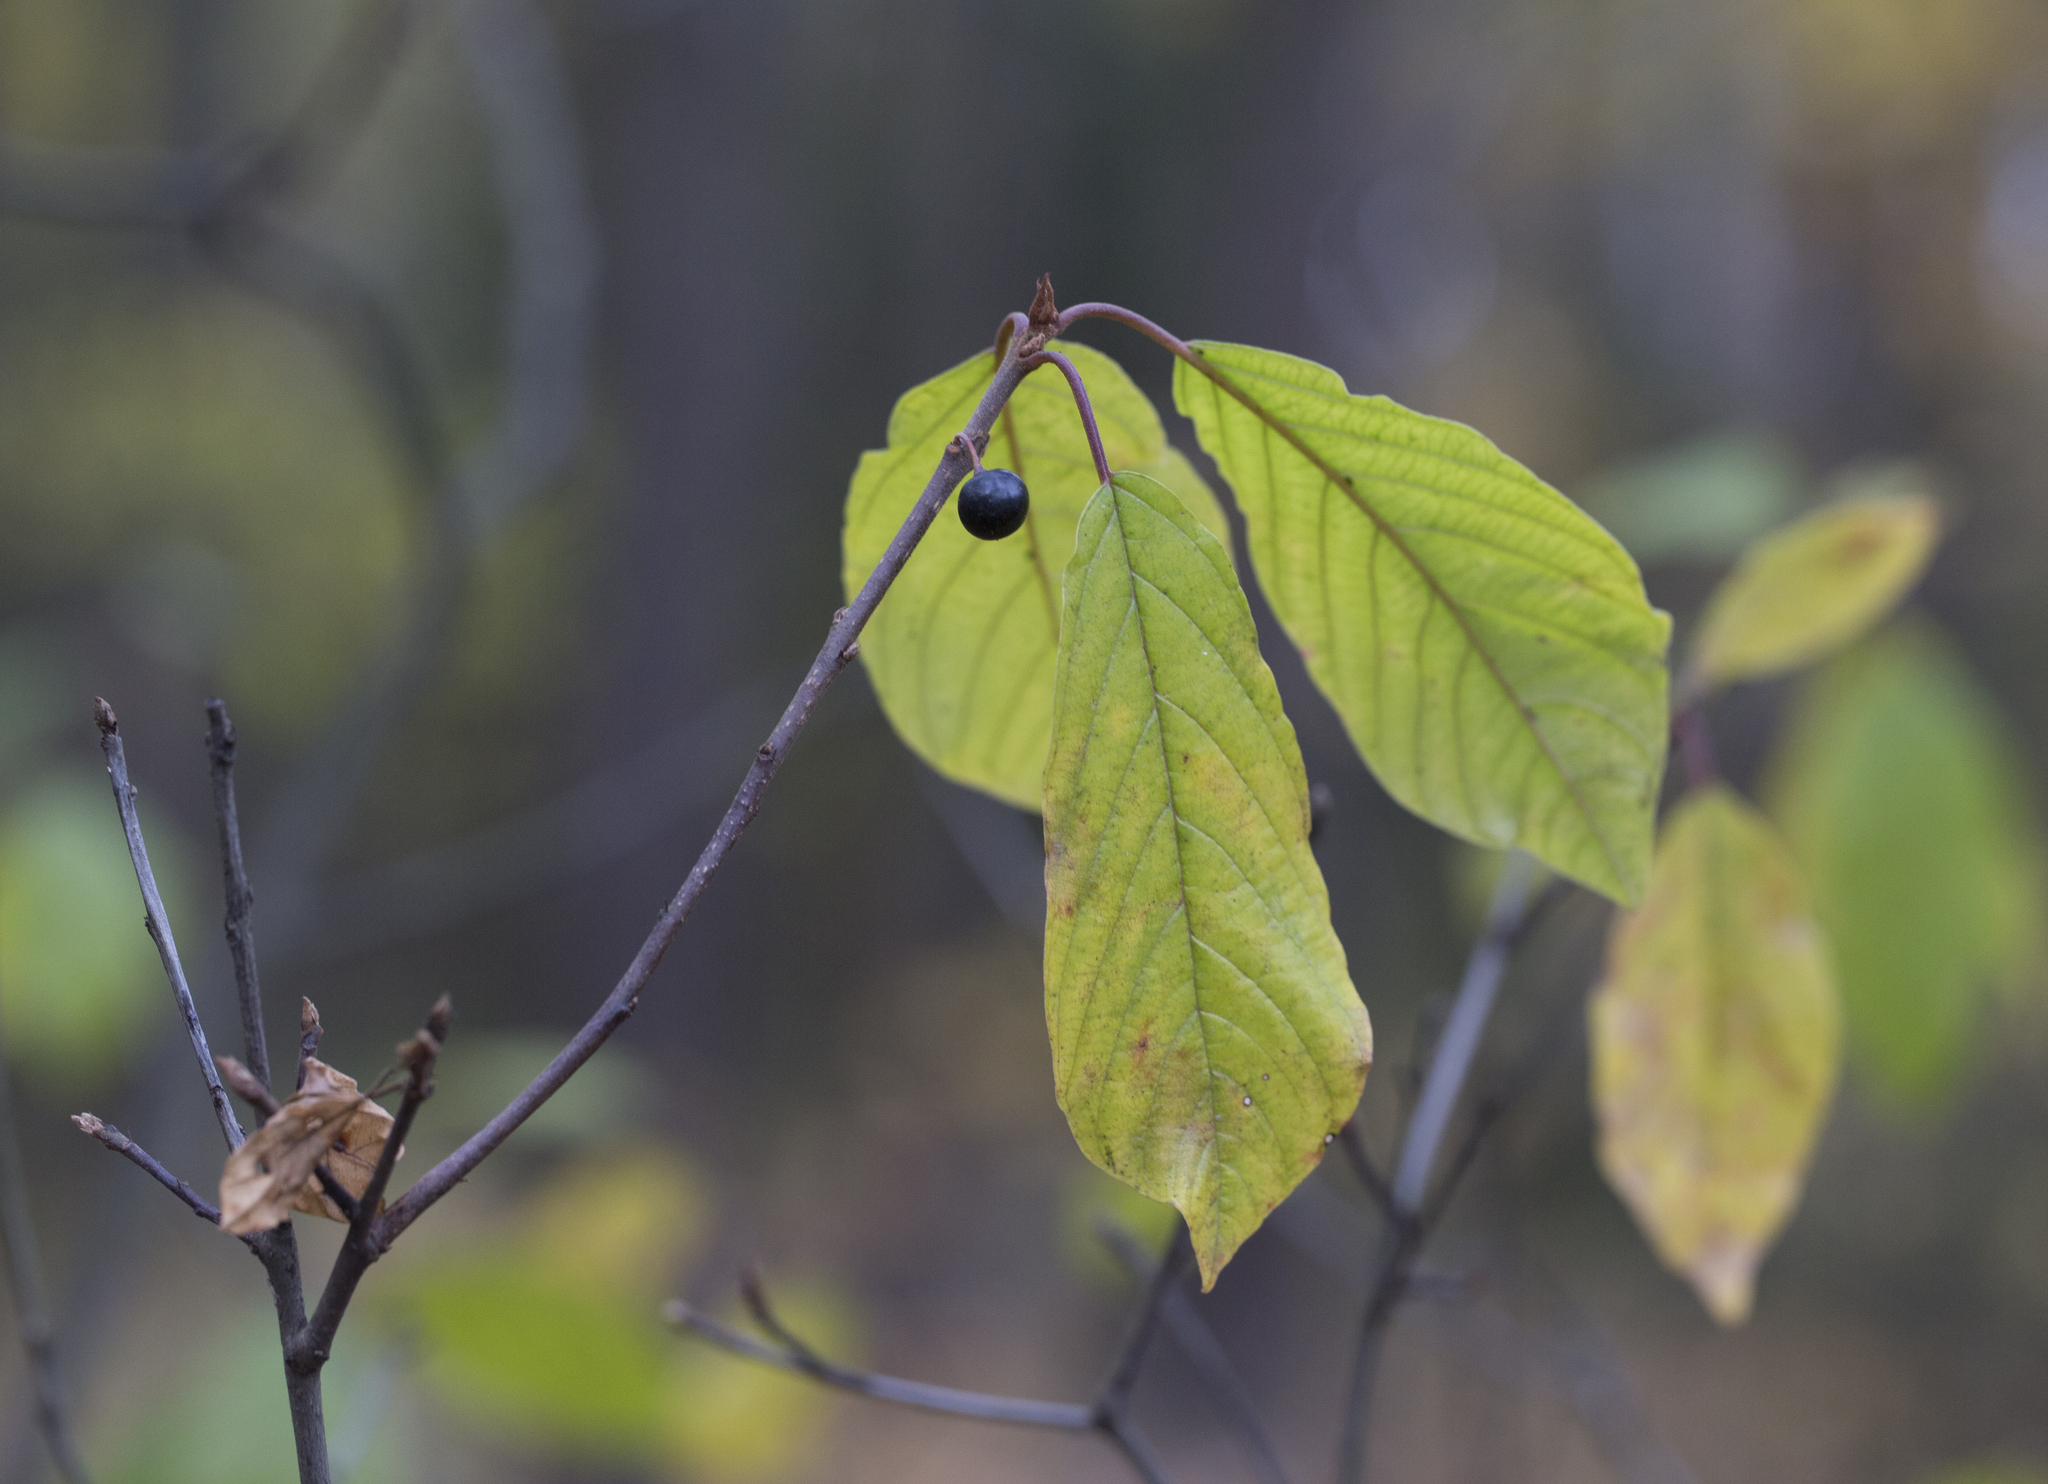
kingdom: Plantae
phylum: Tracheophyta
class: Magnoliopsida
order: Rosales
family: Rhamnaceae
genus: Frangula
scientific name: Frangula alnus
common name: Alder buckthorn
